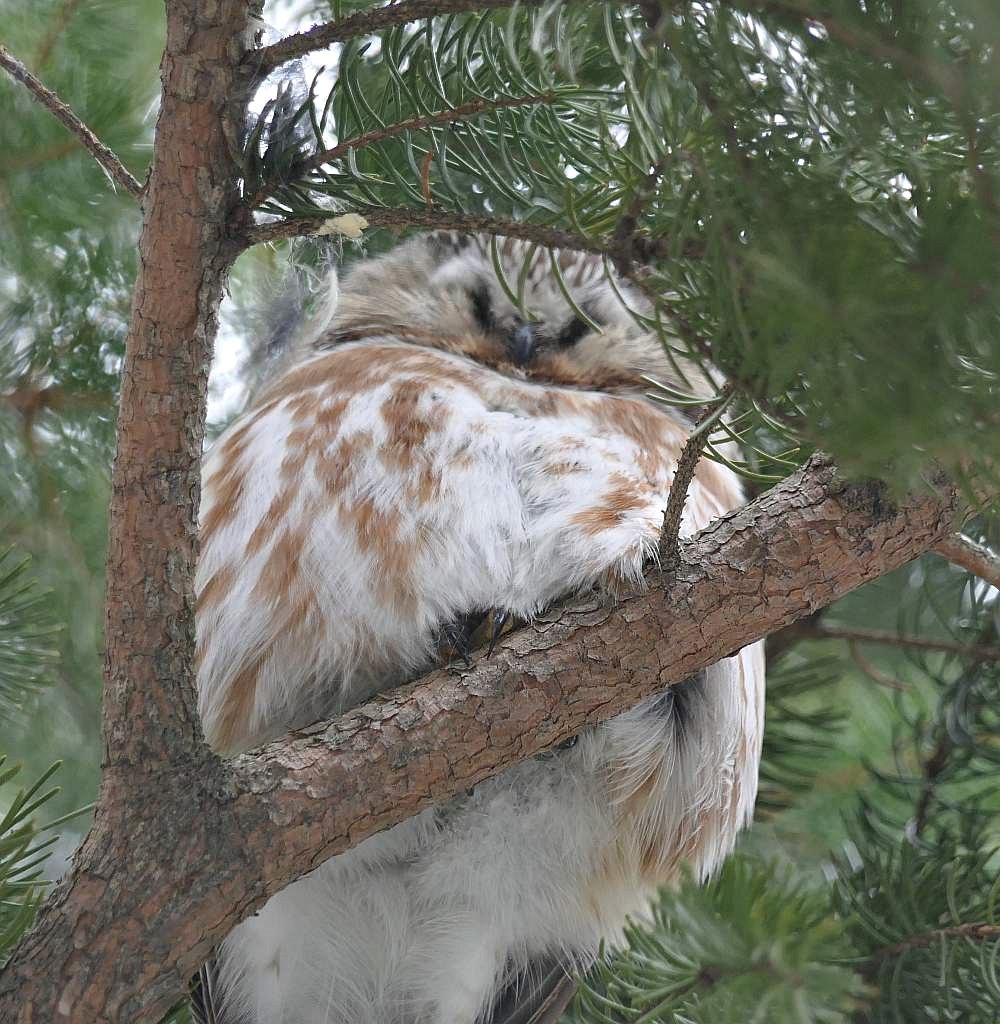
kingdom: Animalia
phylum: Chordata
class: Aves
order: Strigiformes
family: Strigidae
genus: Aegolius
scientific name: Aegolius acadicus
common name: Northern saw-whet owl
